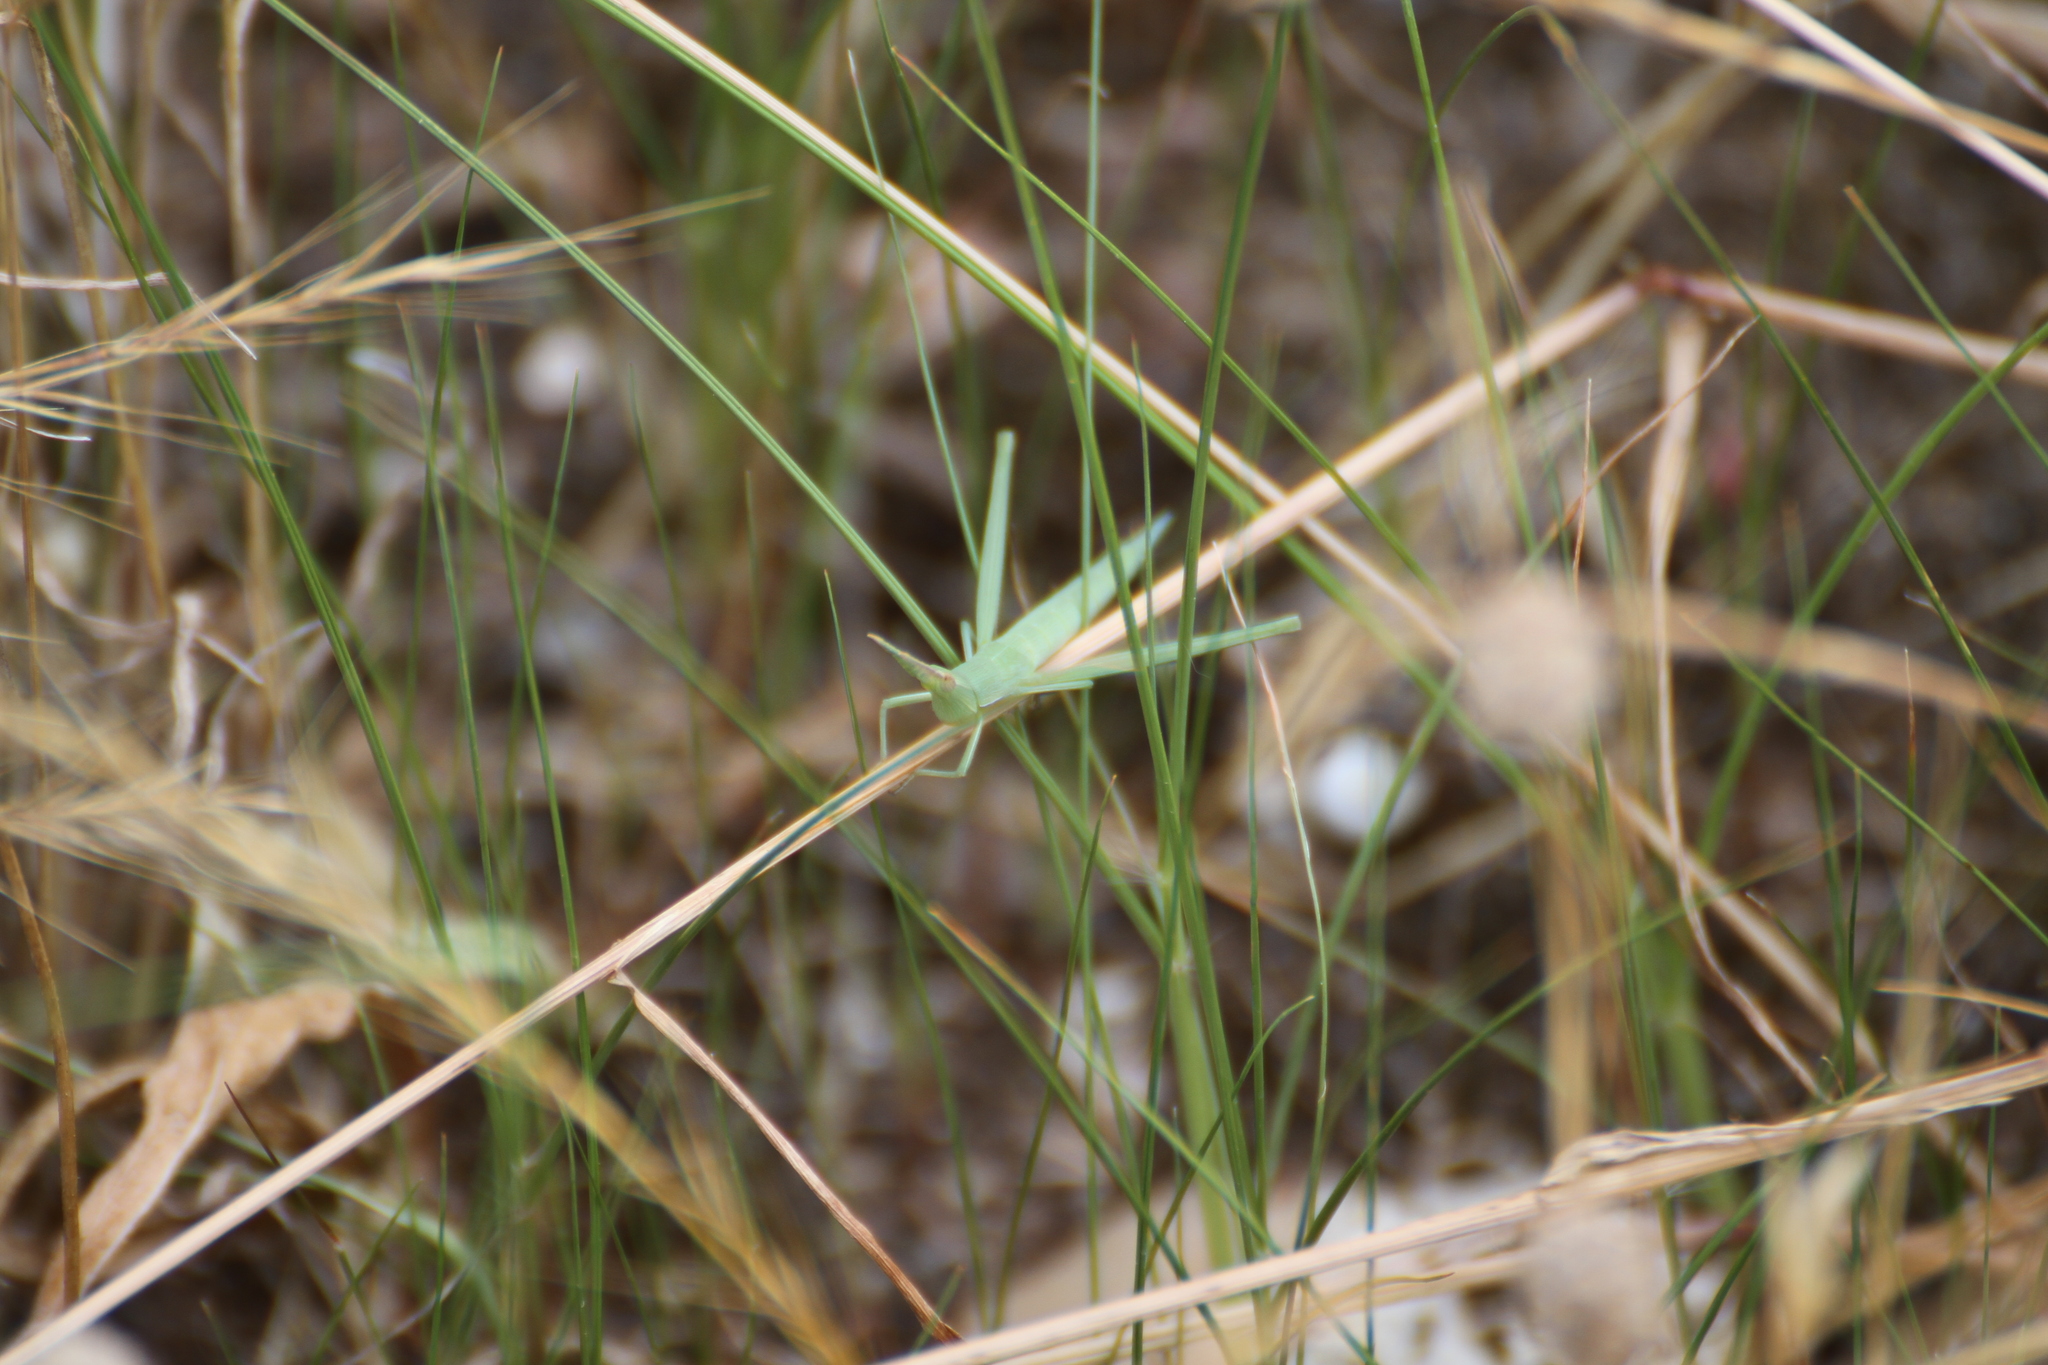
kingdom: Animalia
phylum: Arthropoda
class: Insecta
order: Orthoptera
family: Acrididae
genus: Acrida
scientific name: Acrida ungarica
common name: Common cone-headed grasshopper
